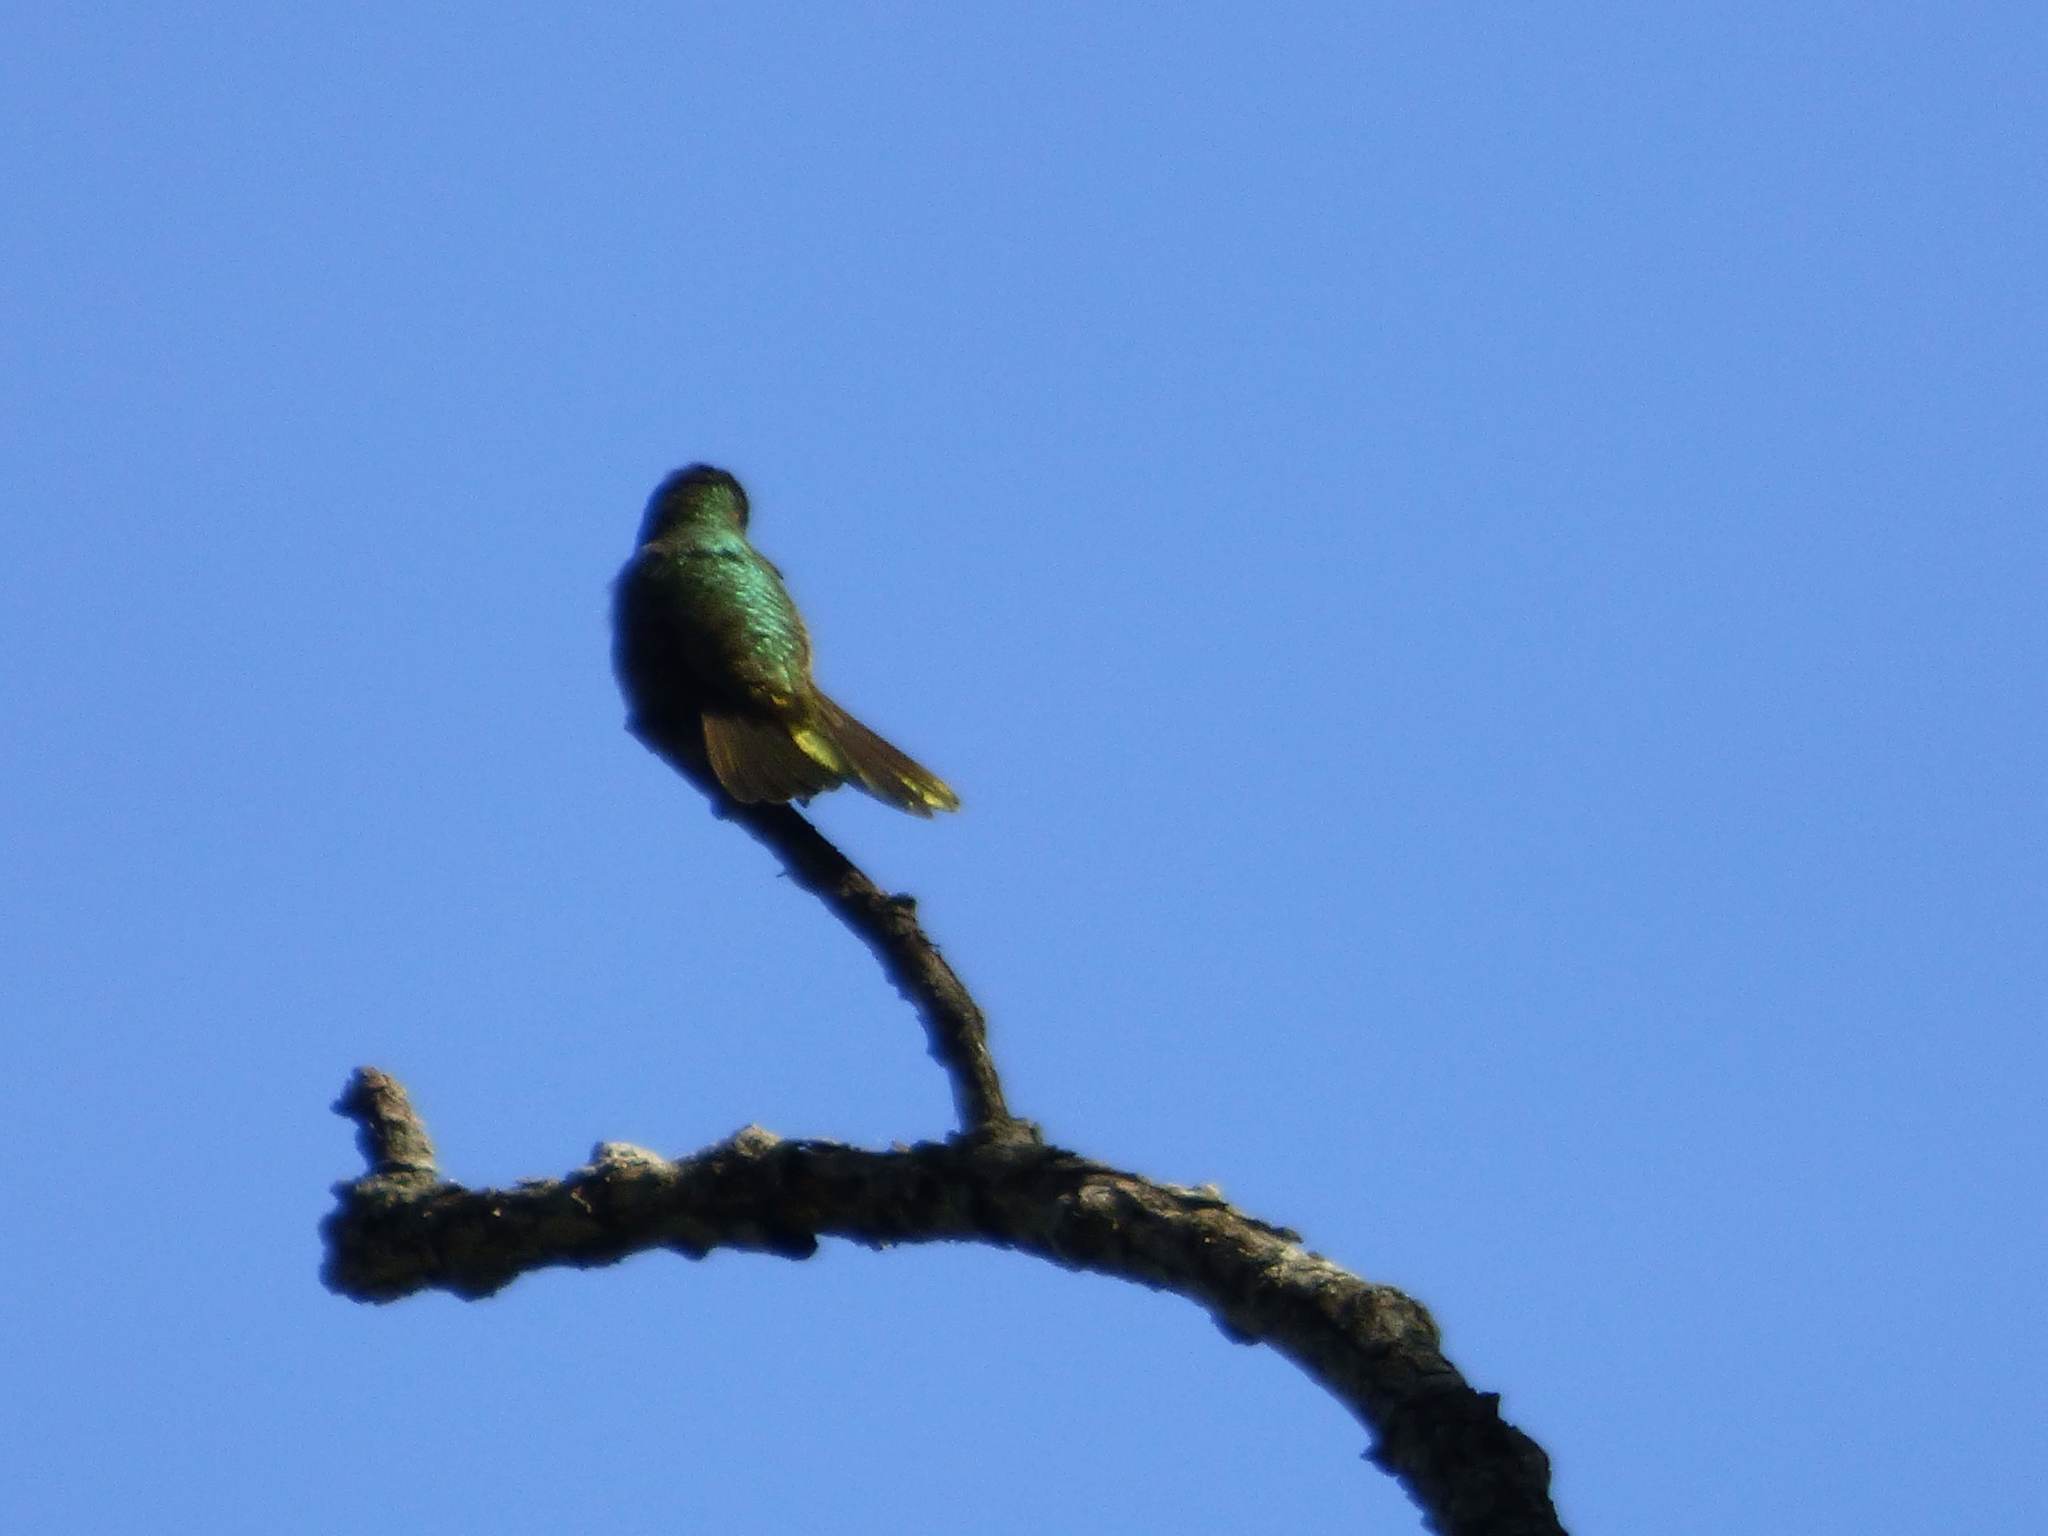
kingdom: Animalia
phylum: Chordata
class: Aves
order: Apodiformes
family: Trochilidae
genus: Chlorostilbon
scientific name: Chlorostilbon lucidus
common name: Glittering-bellied emerald
